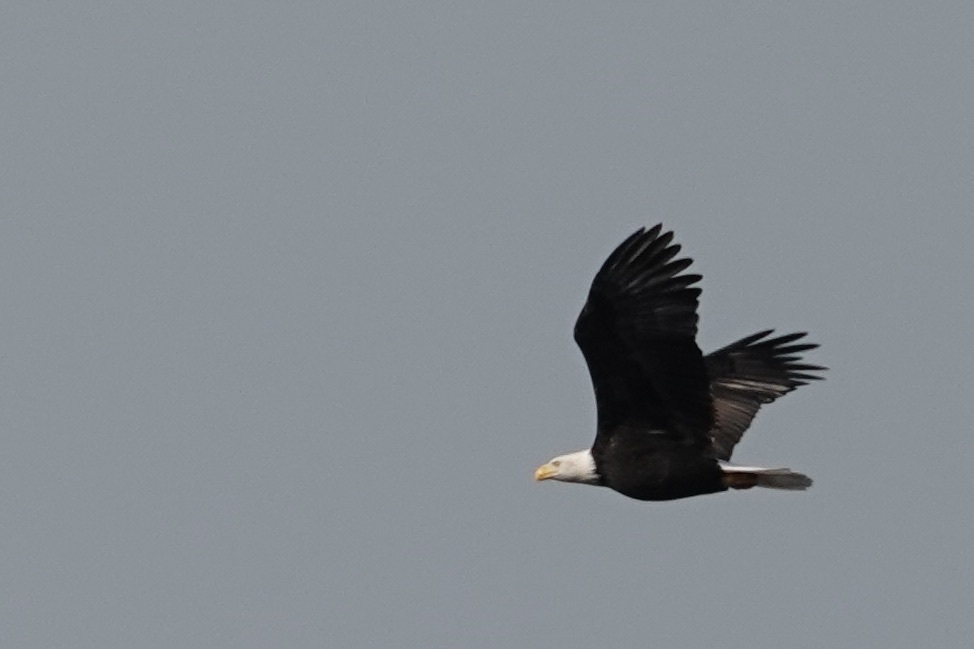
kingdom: Animalia
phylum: Chordata
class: Aves
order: Accipitriformes
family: Accipitridae
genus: Haliaeetus
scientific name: Haliaeetus leucocephalus
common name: Bald eagle
